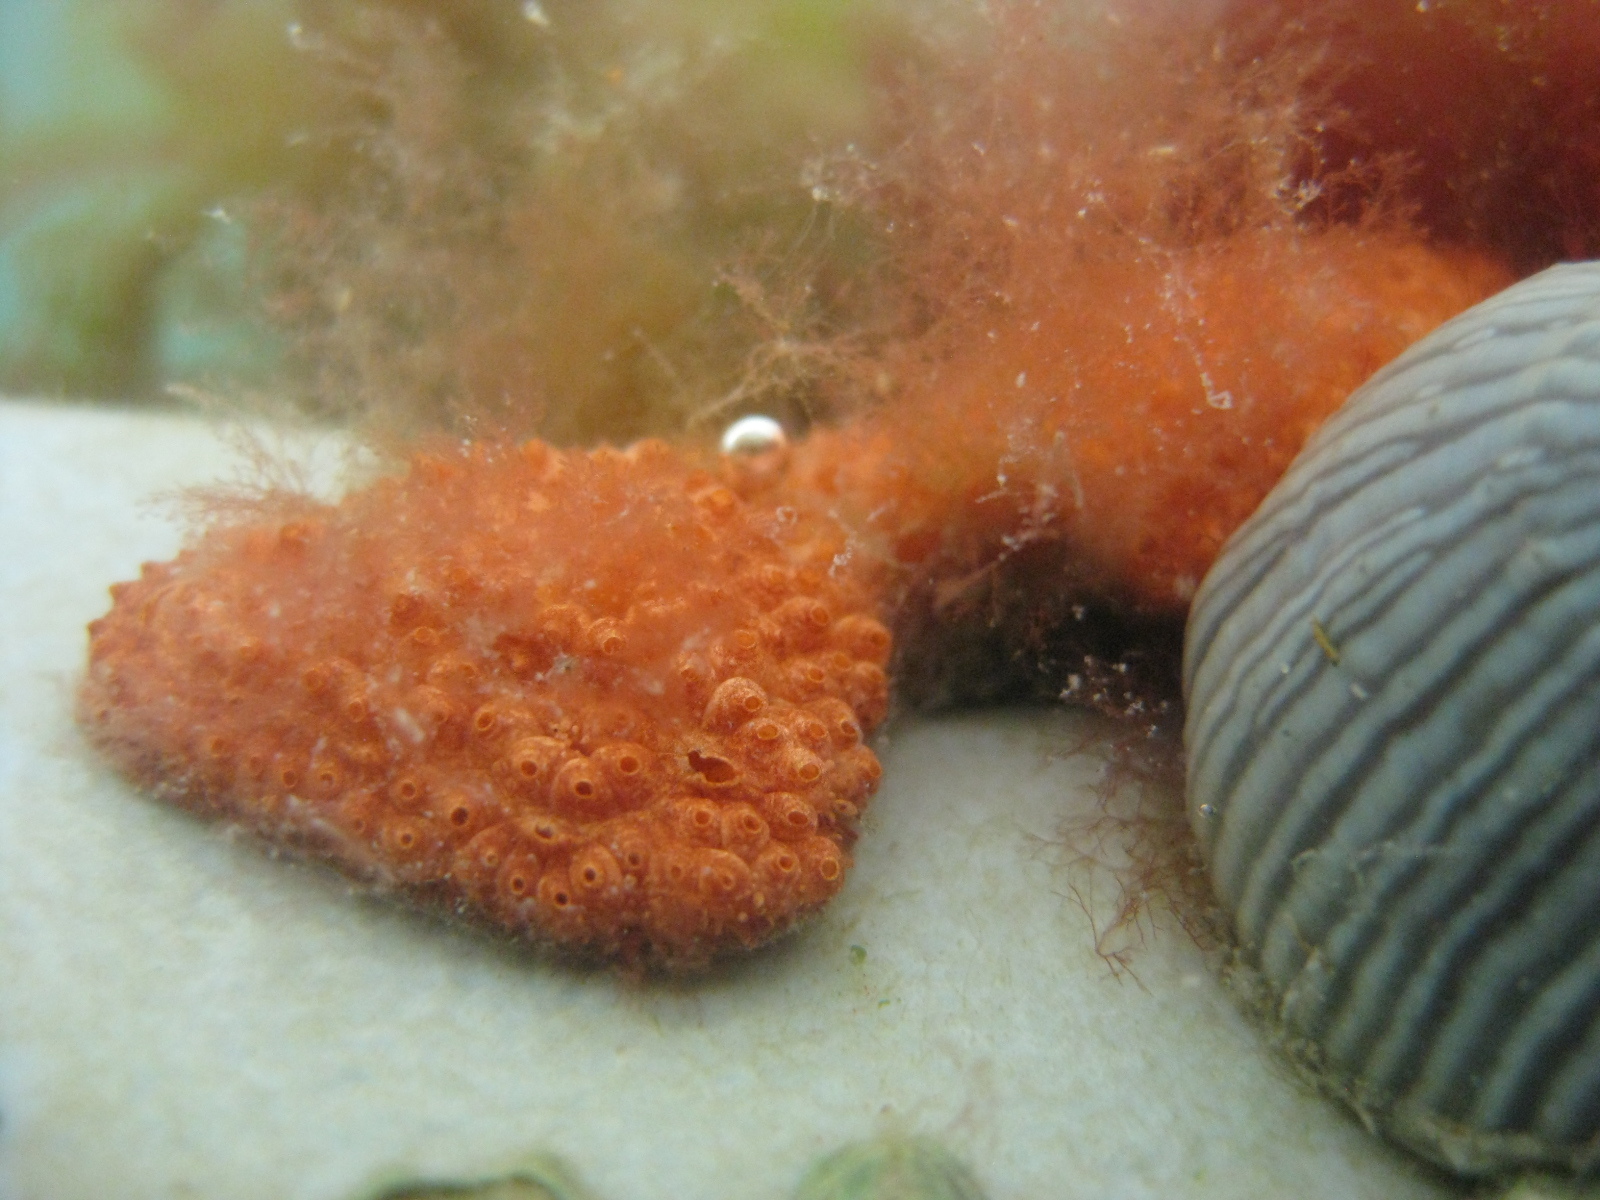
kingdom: Animalia
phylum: Chordata
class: Ascidiacea
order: Stolidobranchia
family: Styelidae
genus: Botrylloides
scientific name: Botrylloides violaceus
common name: Colonial sea squirt
